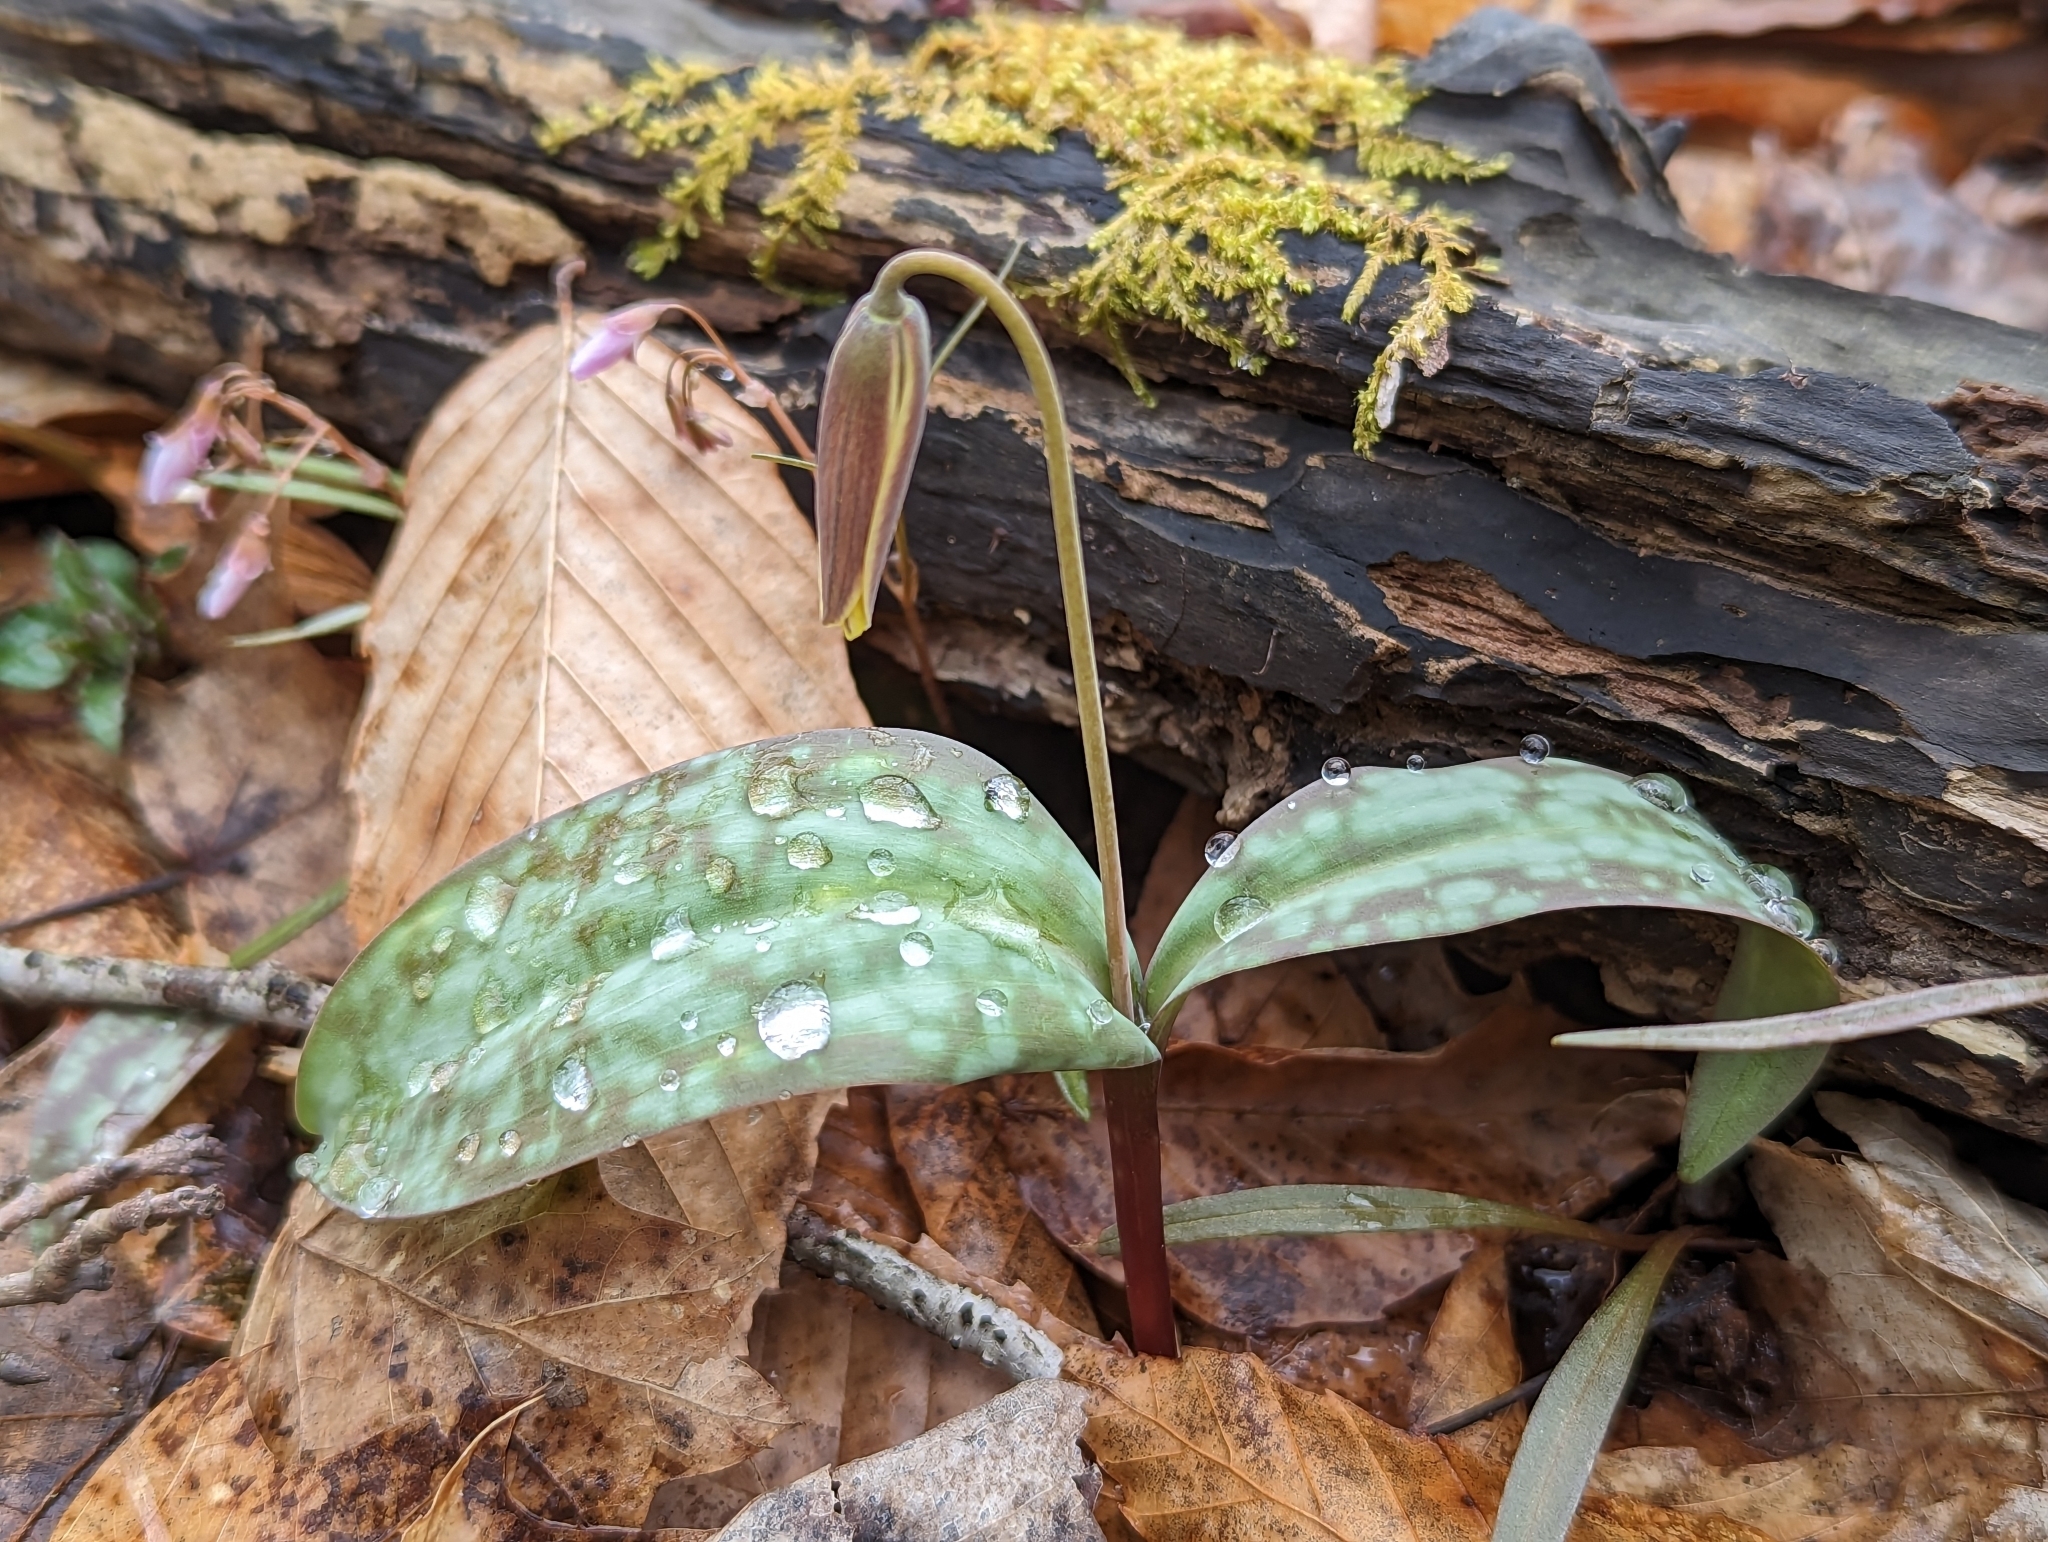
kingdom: Plantae
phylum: Tracheophyta
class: Liliopsida
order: Liliales
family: Liliaceae
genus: Erythronium
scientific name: Erythronium rostratum
